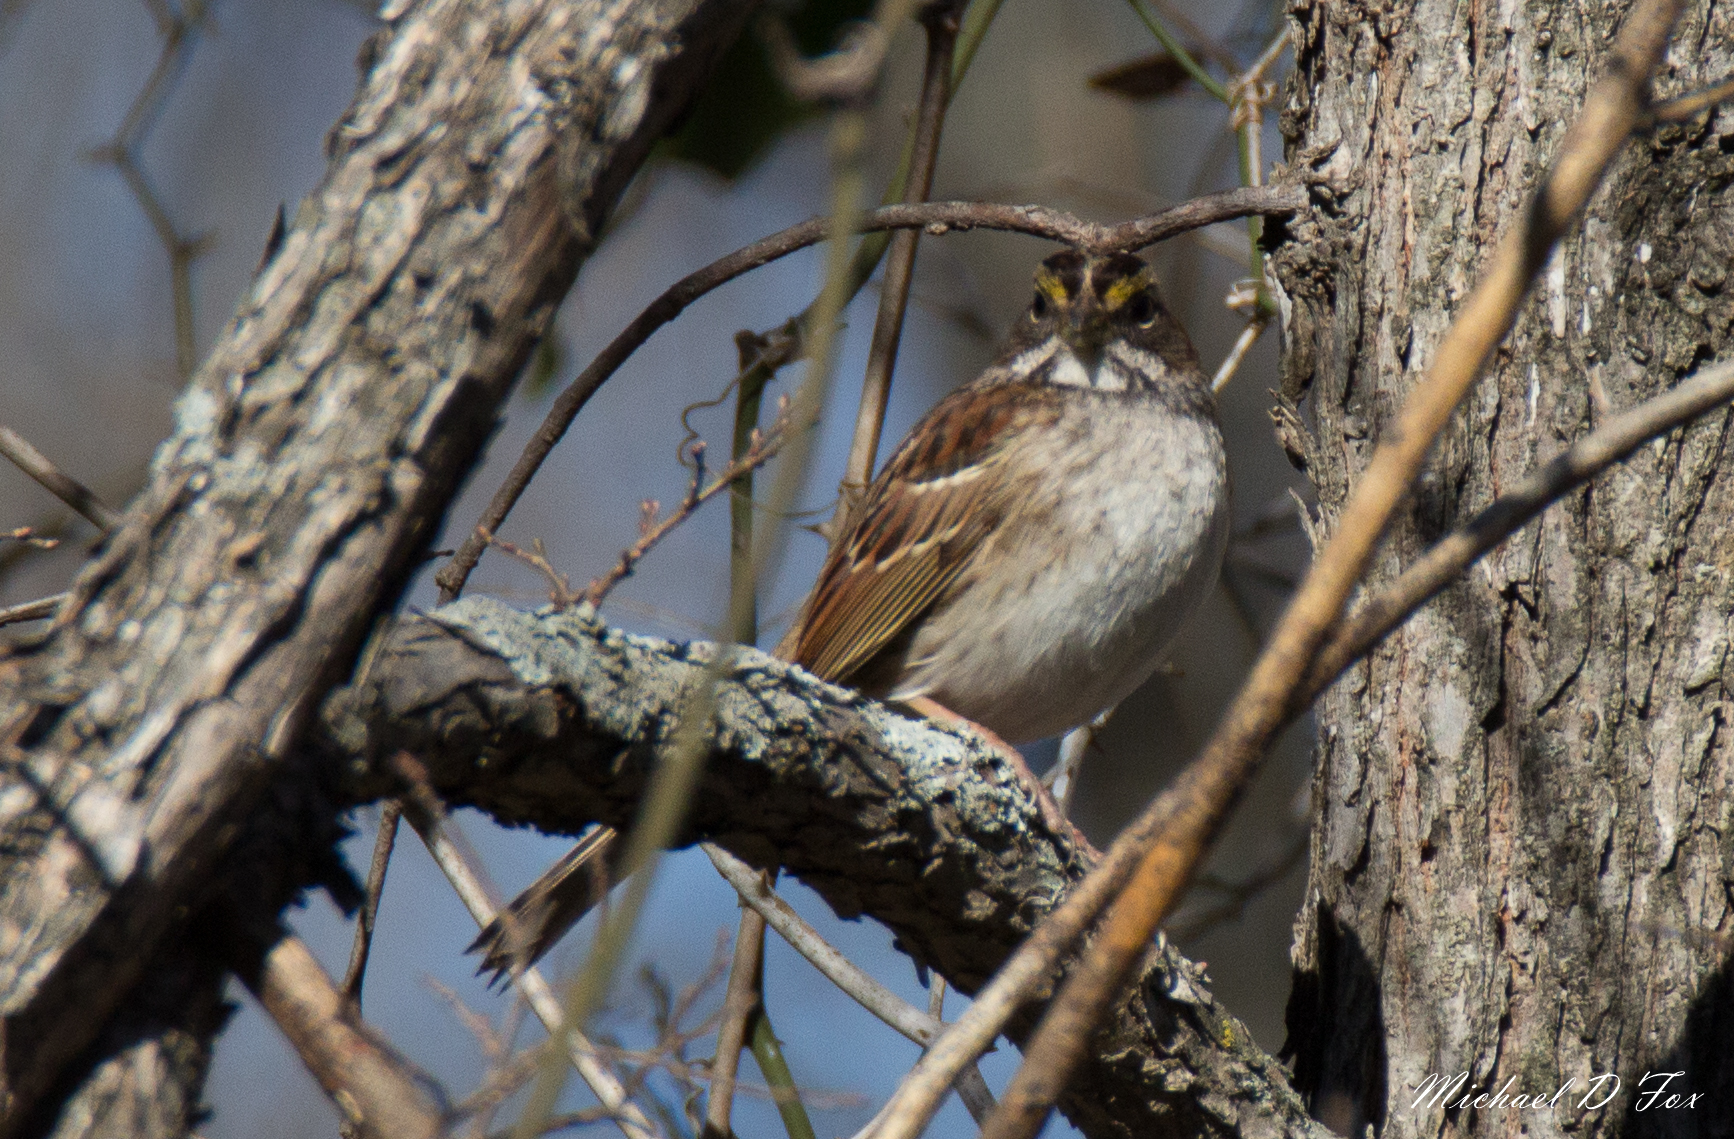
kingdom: Animalia
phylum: Chordata
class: Aves
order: Passeriformes
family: Passerellidae
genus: Zonotrichia
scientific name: Zonotrichia albicollis
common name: White-throated sparrow
